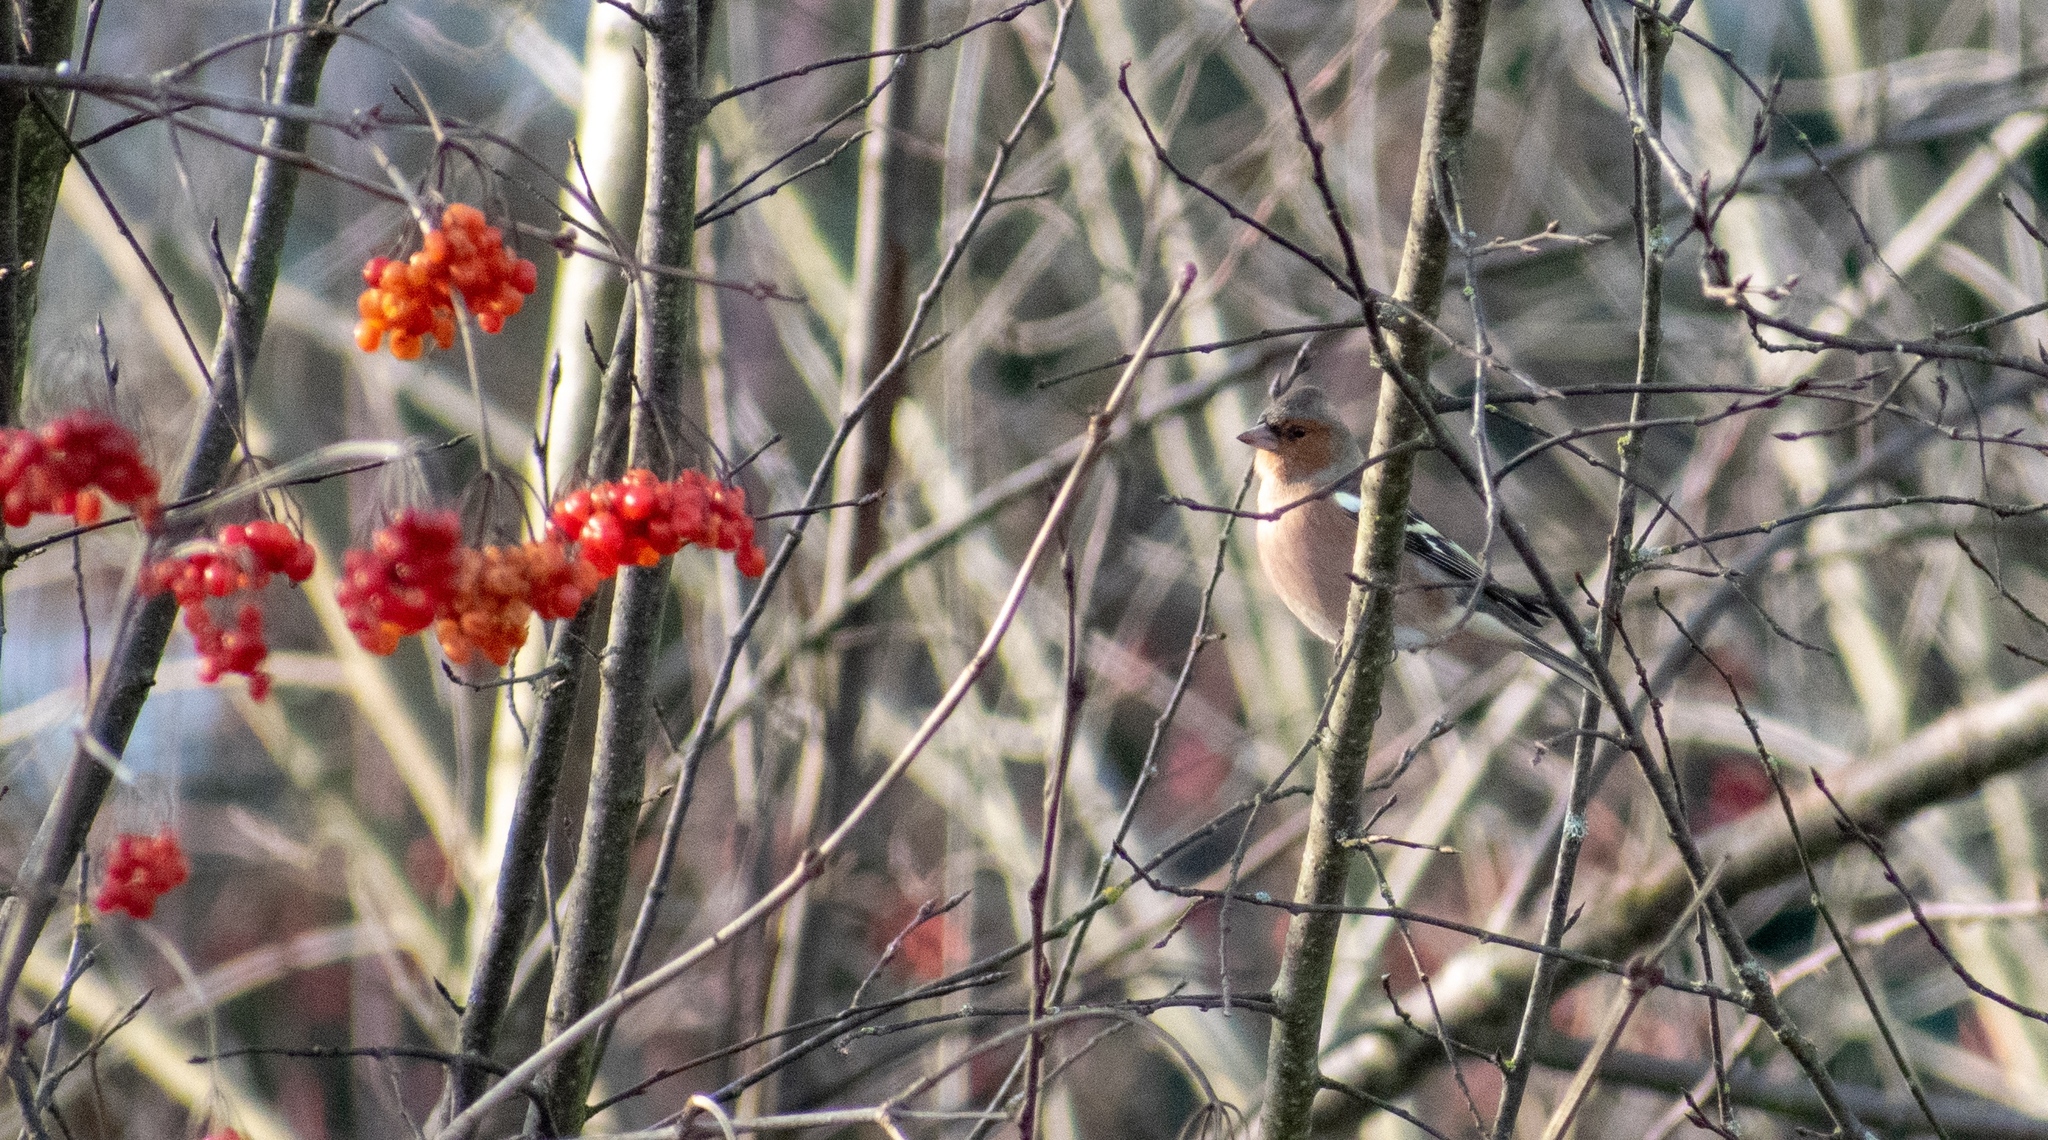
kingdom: Animalia
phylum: Chordata
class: Aves
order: Passeriformes
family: Fringillidae
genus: Fringilla
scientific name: Fringilla coelebs
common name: Common chaffinch
